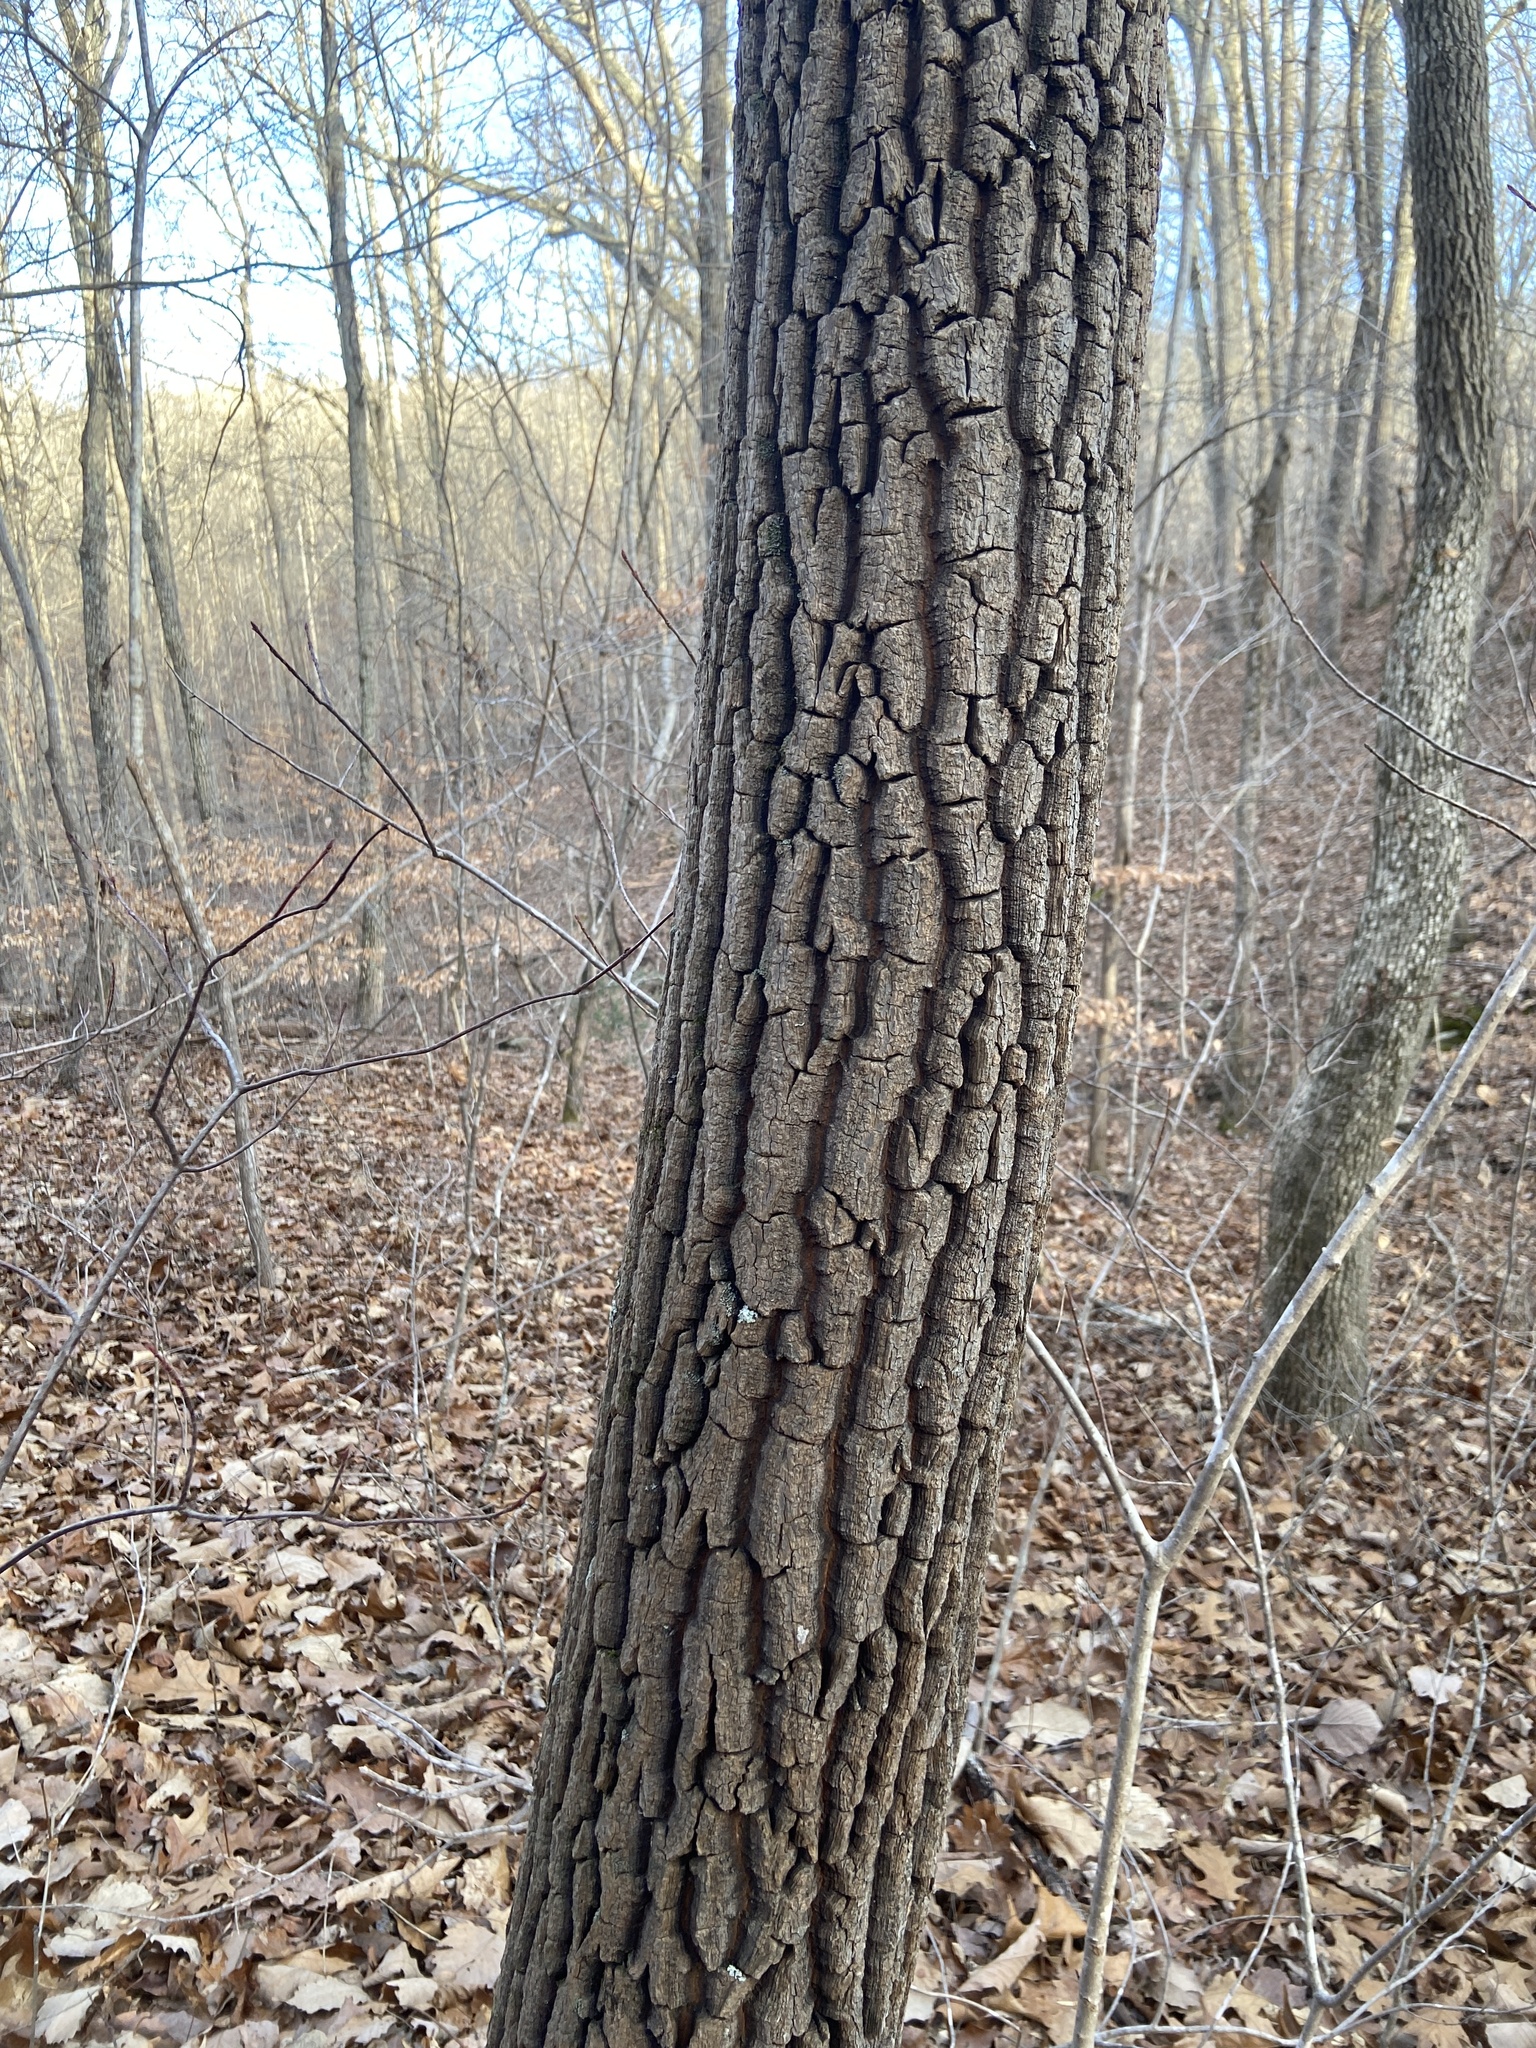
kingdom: Plantae
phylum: Tracheophyta
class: Magnoliopsida
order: Ericales
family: Ericaceae
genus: Oxydendrum
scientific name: Oxydendrum arboreum
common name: Sourwood
